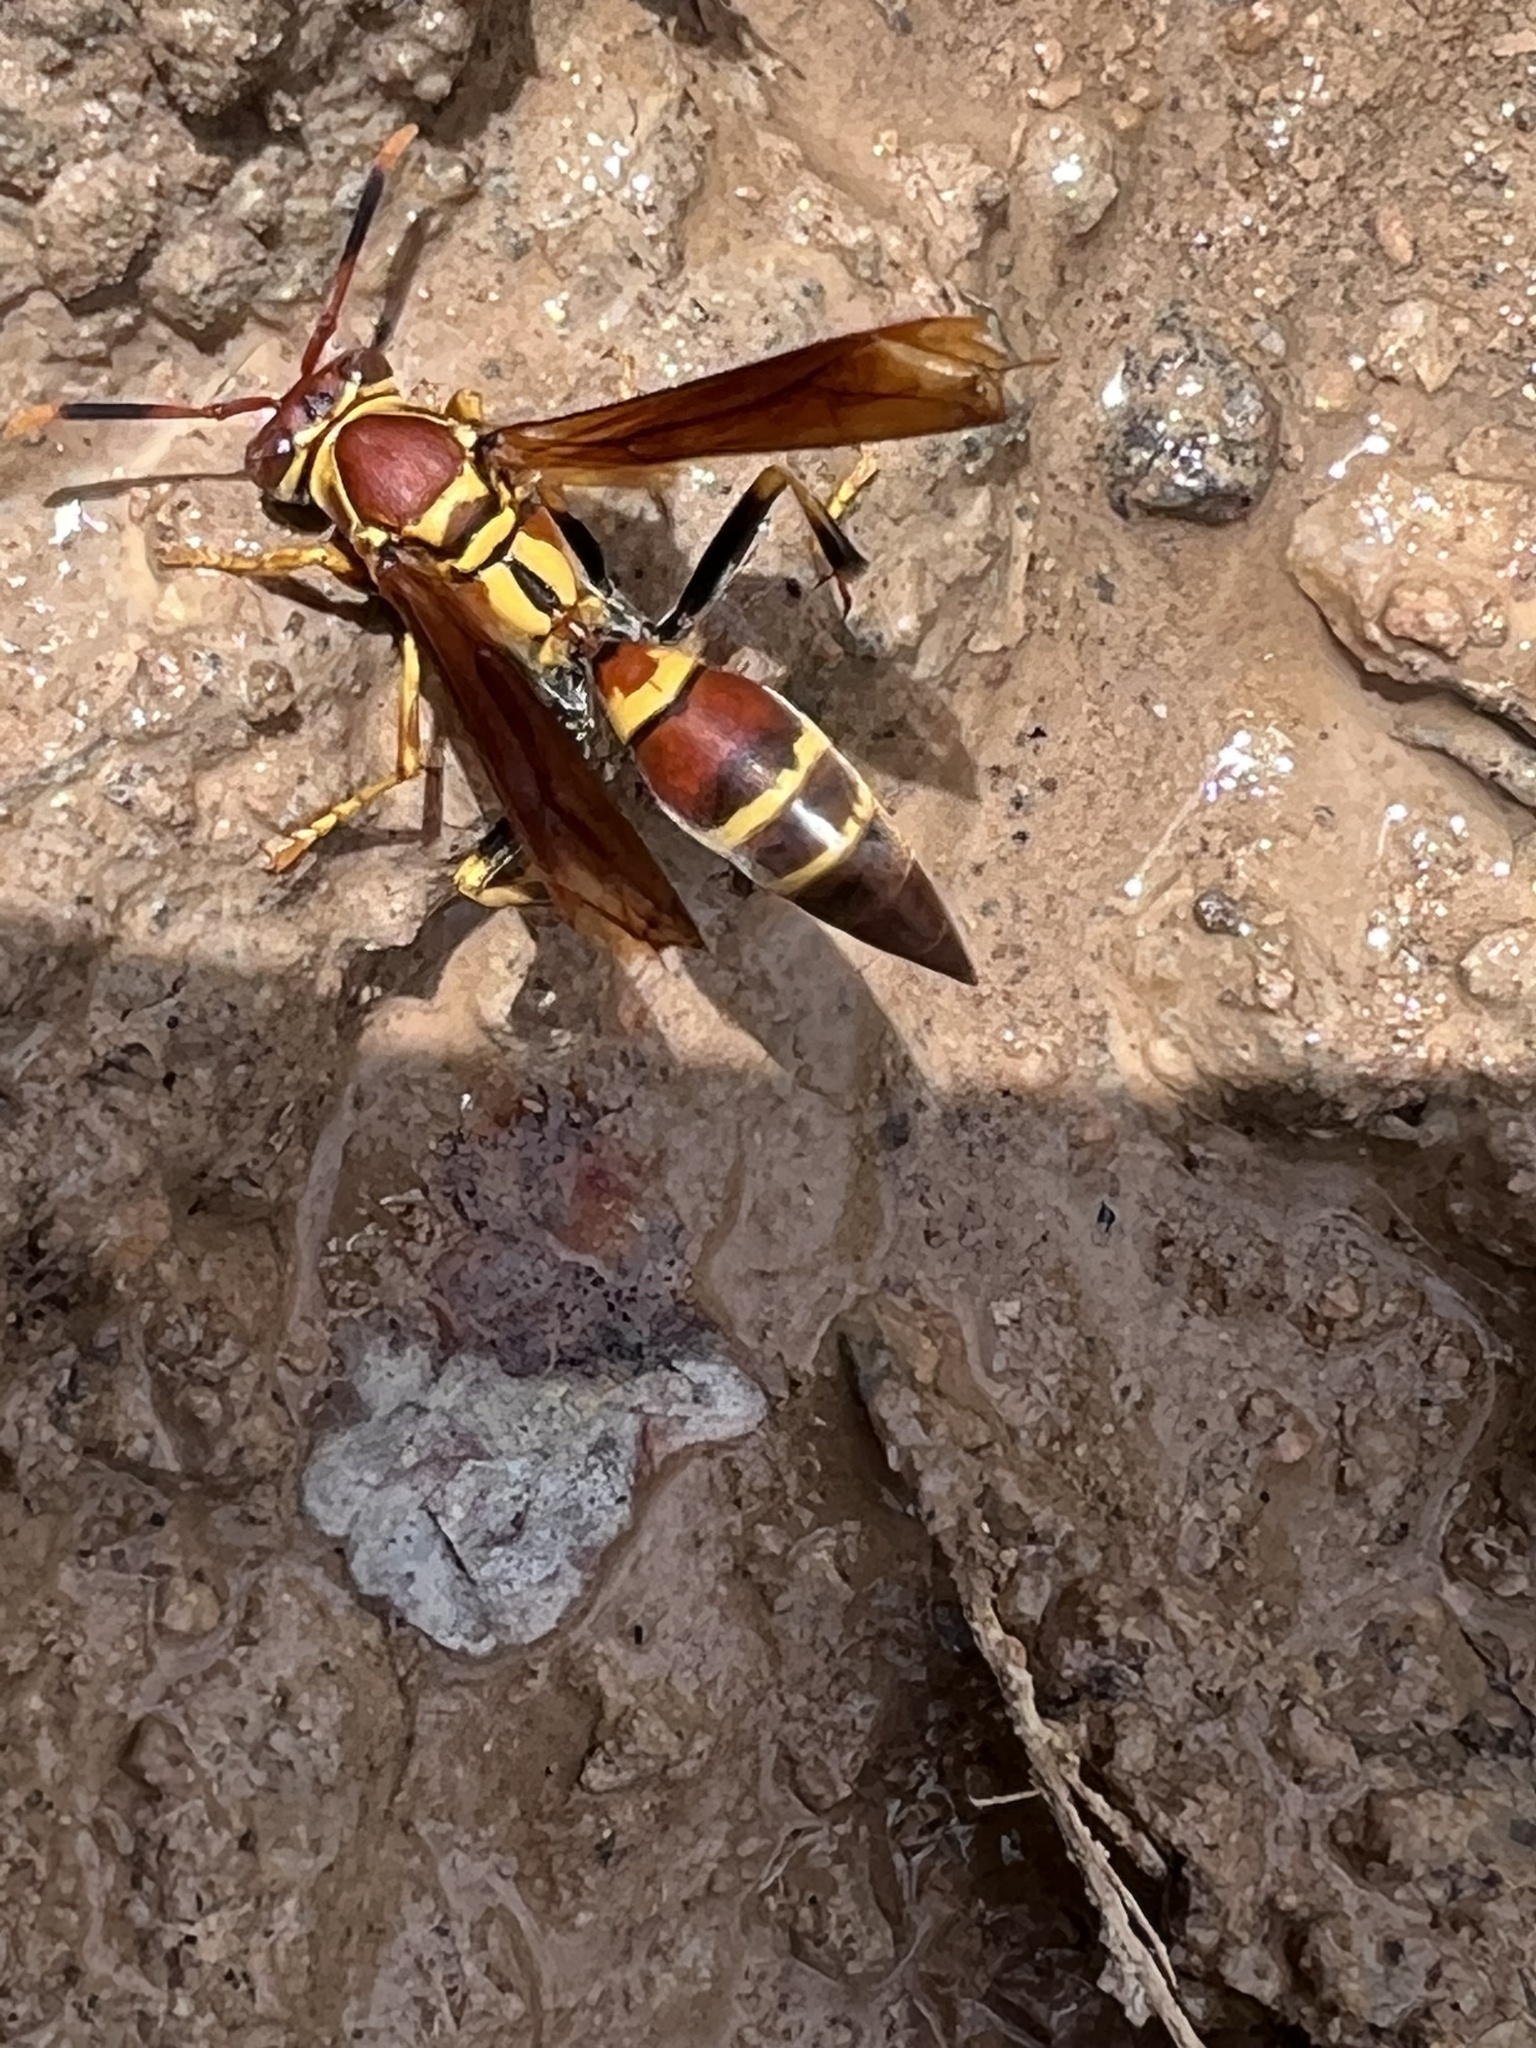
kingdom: Animalia
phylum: Arthropoda
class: Insecta
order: Hymenoptera
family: Eumenidae
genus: Polistes
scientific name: Polistes instabilis
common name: Unstable paper wasp
